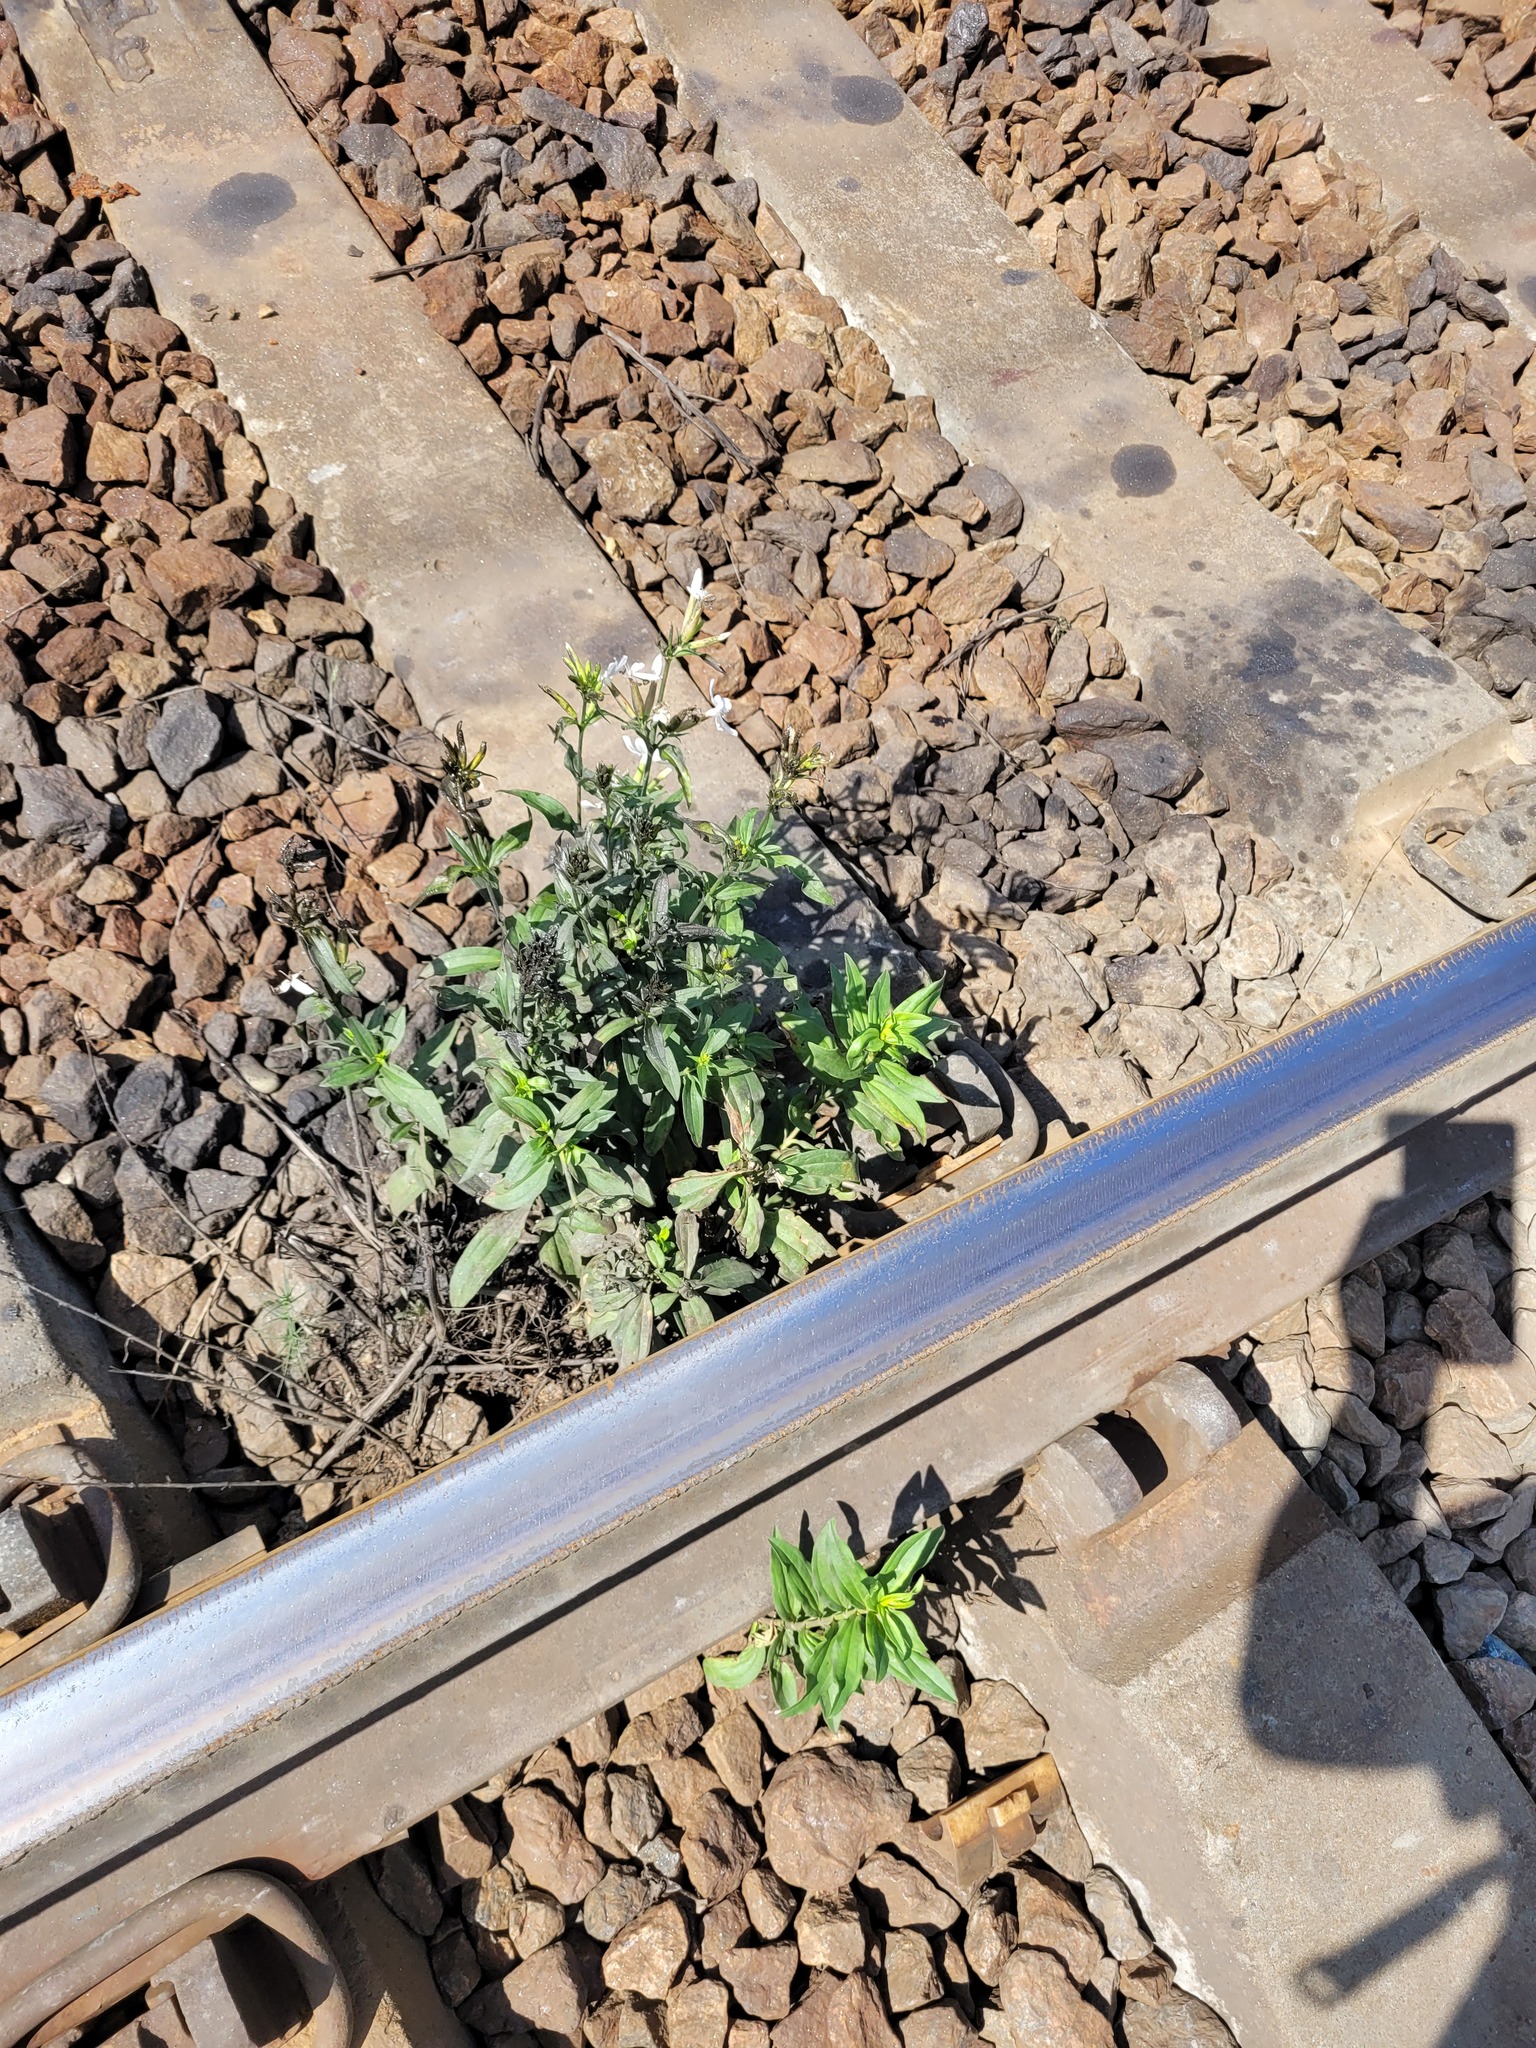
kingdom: Plantae
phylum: Tracheophyta
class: Magnoliopsida
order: Caryophyllales
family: Caryophyllaceae
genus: Saponaria
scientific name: Saponaria officinalis
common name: Soapwort
